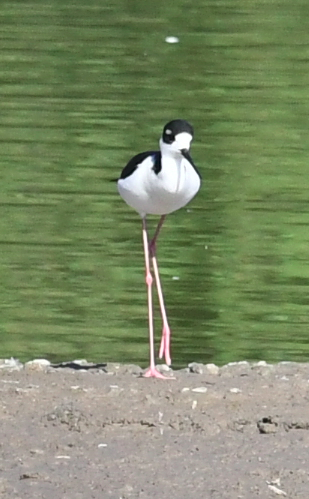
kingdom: Animalia
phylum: Chordata
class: Aves
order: Charadriiformes
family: Recurvirostridae
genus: Himantopus
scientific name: Himantopus mexicanus
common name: Black-necked stilt
